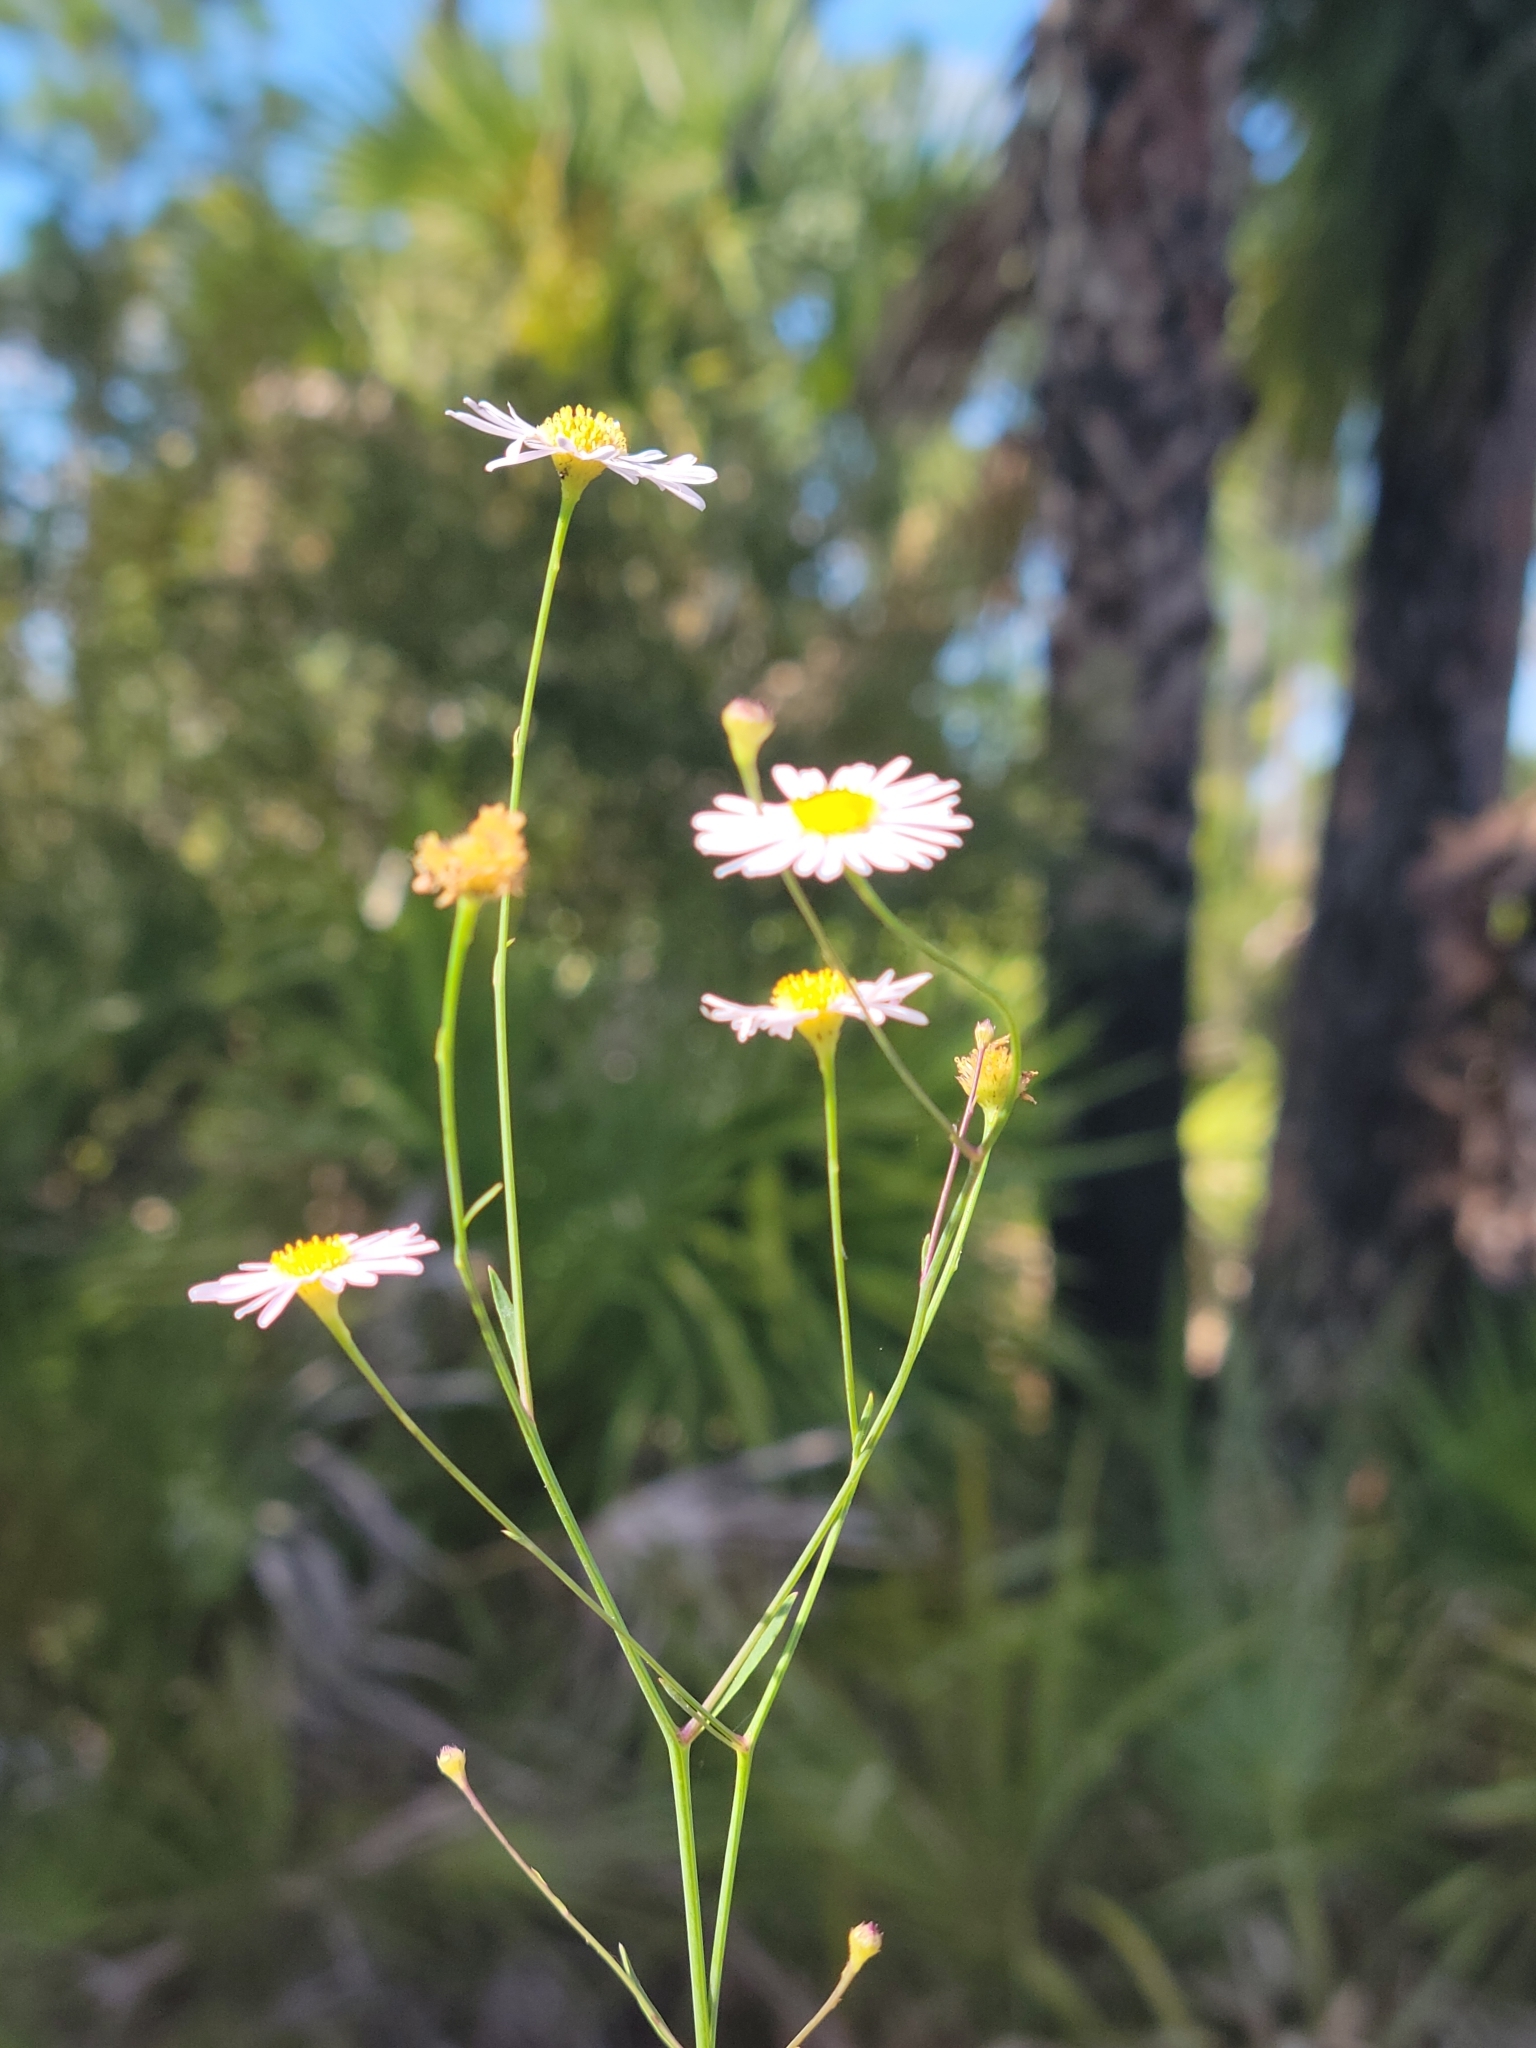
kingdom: Plantae
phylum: Tracheophyta
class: Magnoliopsida
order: Asterales
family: Asteraceae
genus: Boltonia
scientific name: Boltonia diffusa
